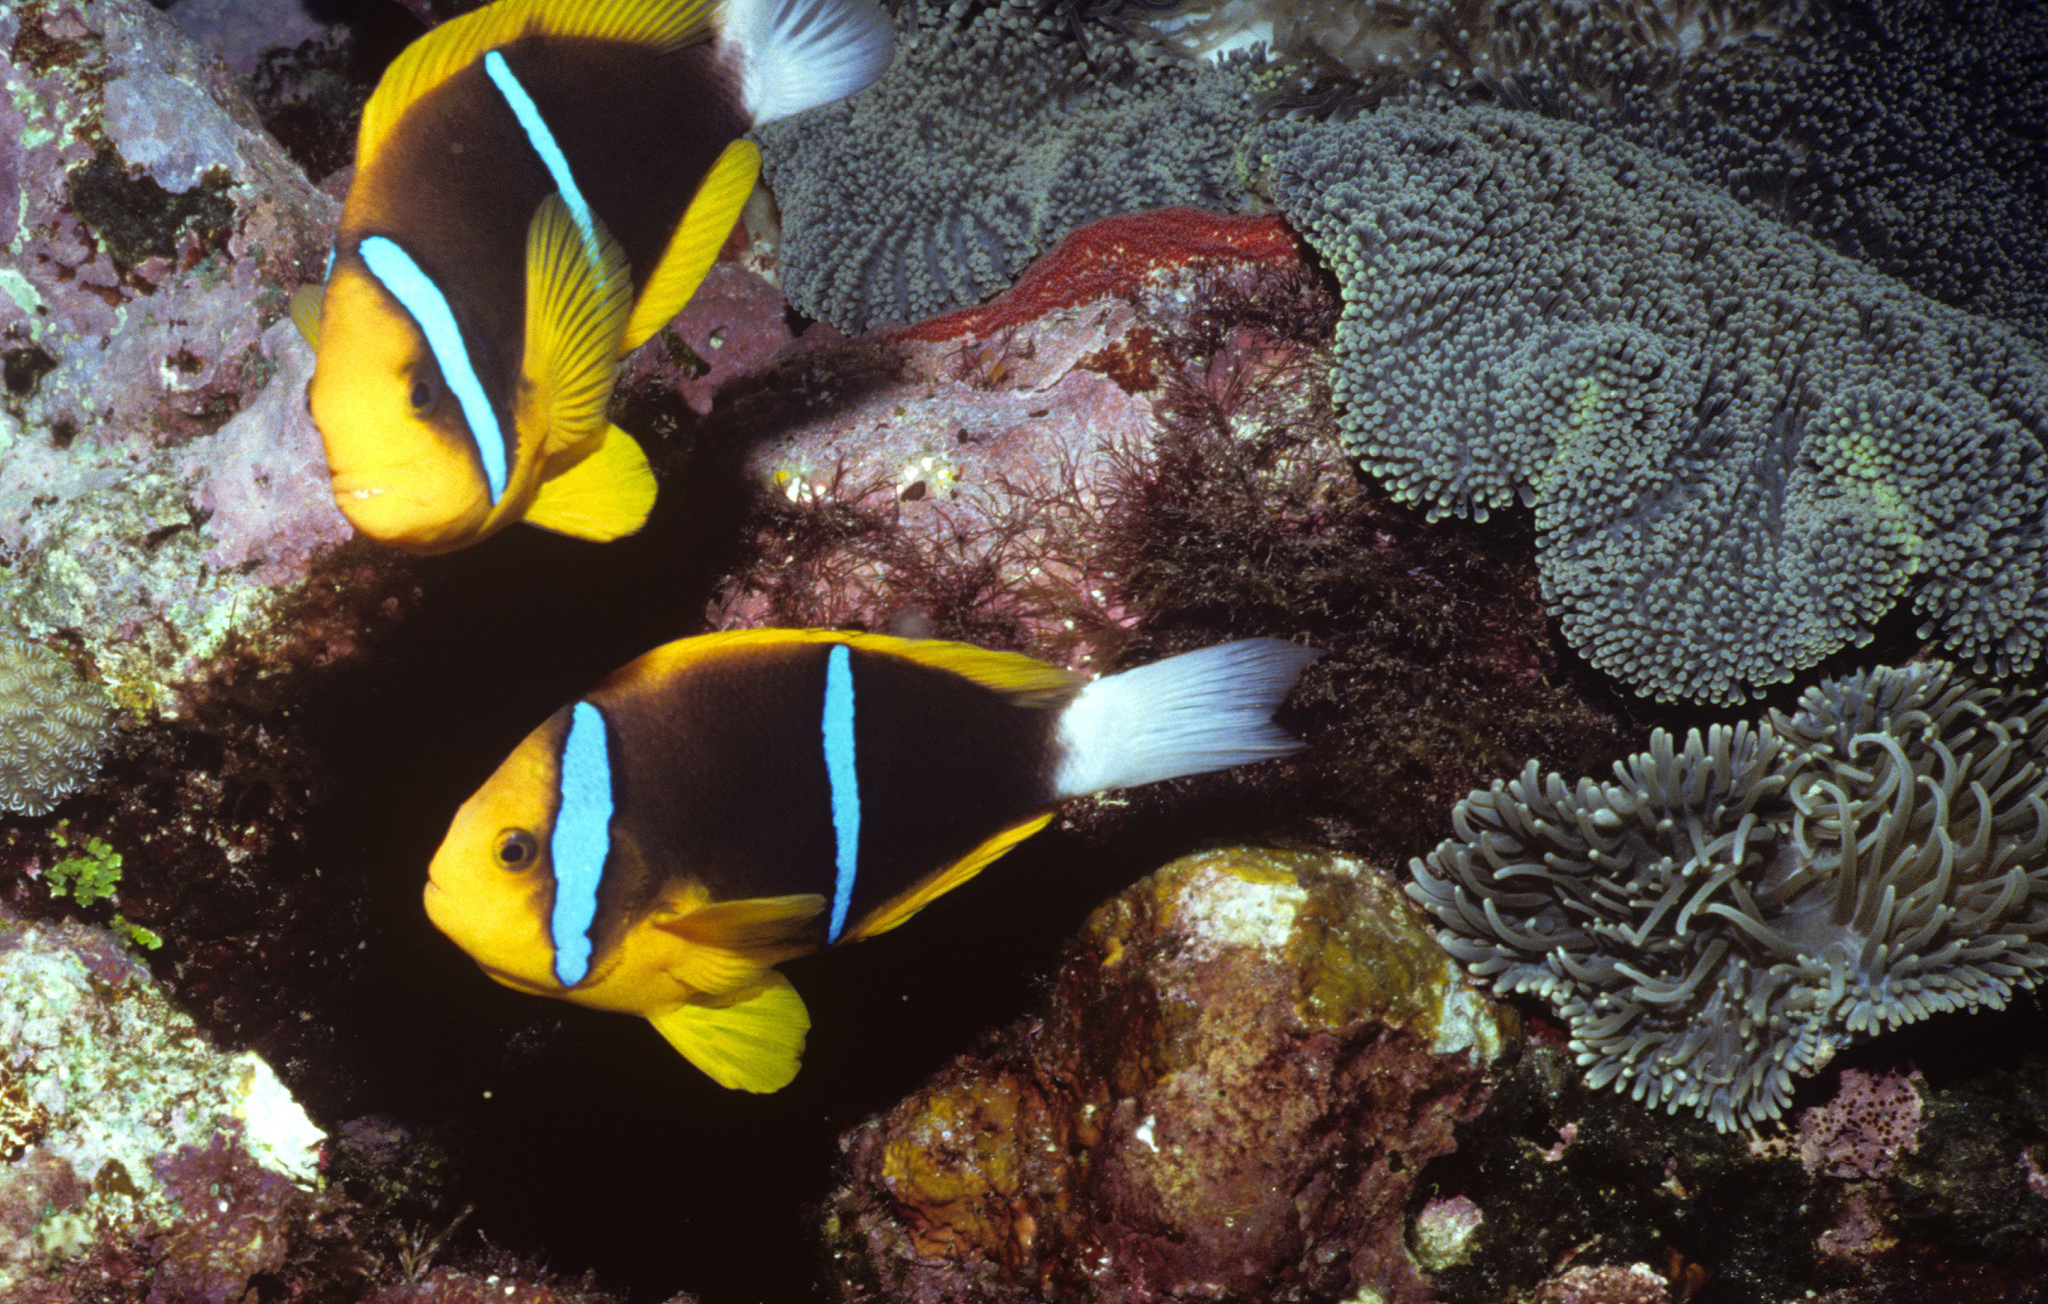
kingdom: Animalia
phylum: Chordata
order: Perciformes
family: Pomacentridae
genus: Amphiprion
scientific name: Amphiprion chrysopterus
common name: Orange-fin anemonefish
